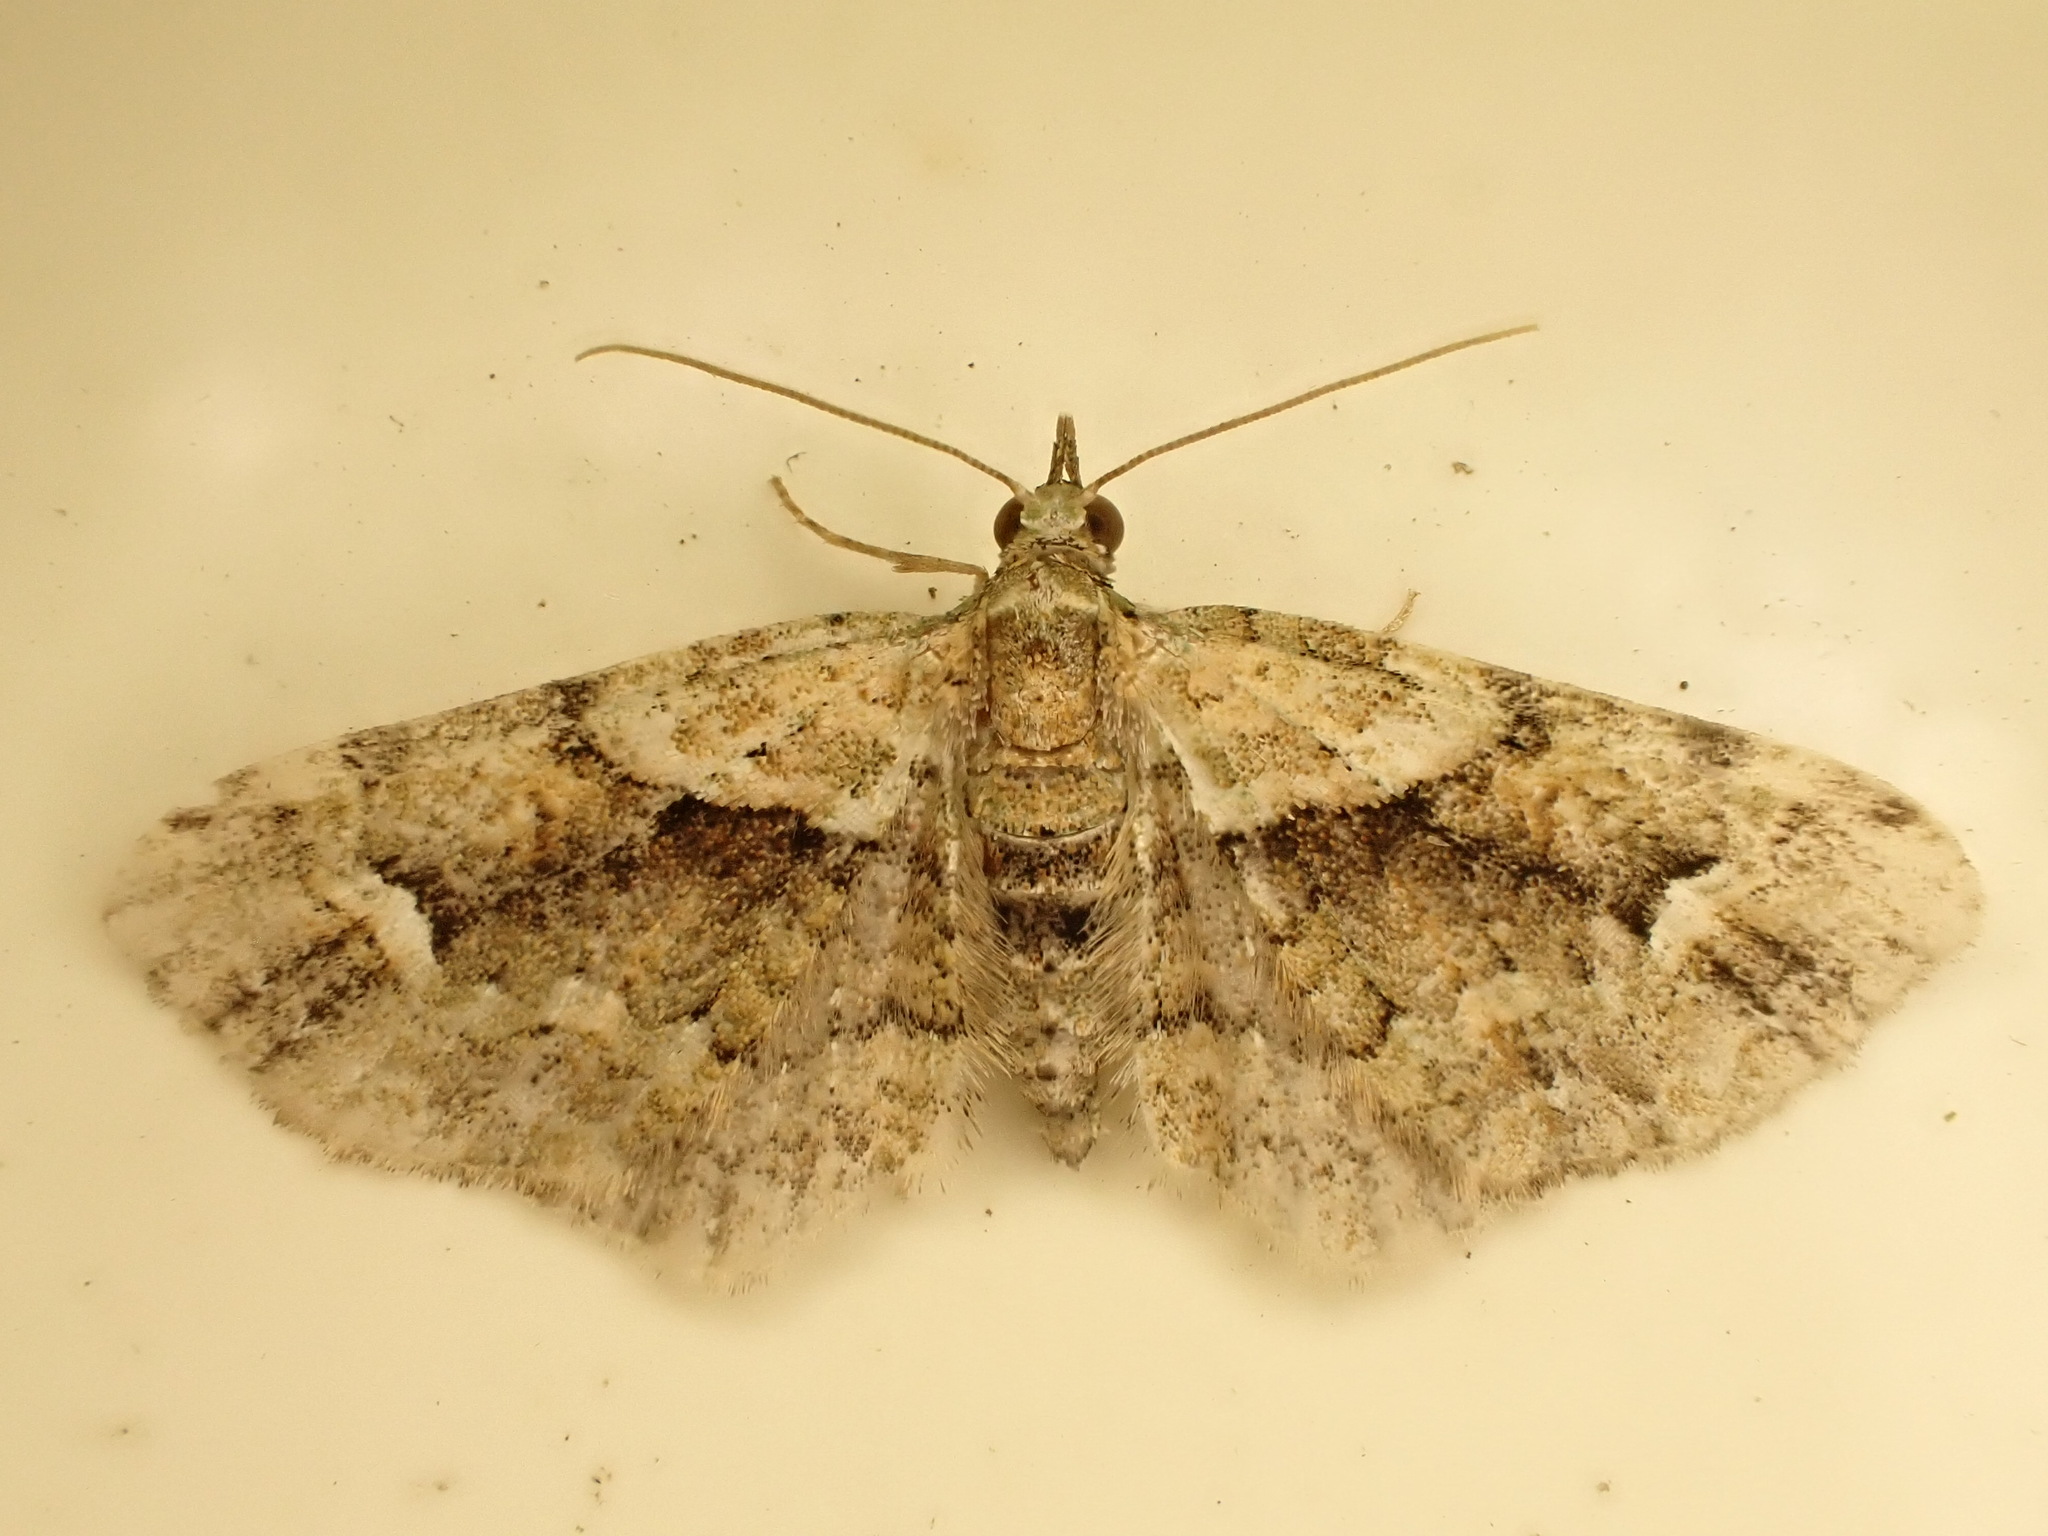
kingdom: Animalia
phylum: Arthropoda
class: Insecta
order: Lepidoptera
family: Geometridae
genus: Idaea
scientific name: Idaea mutanda
